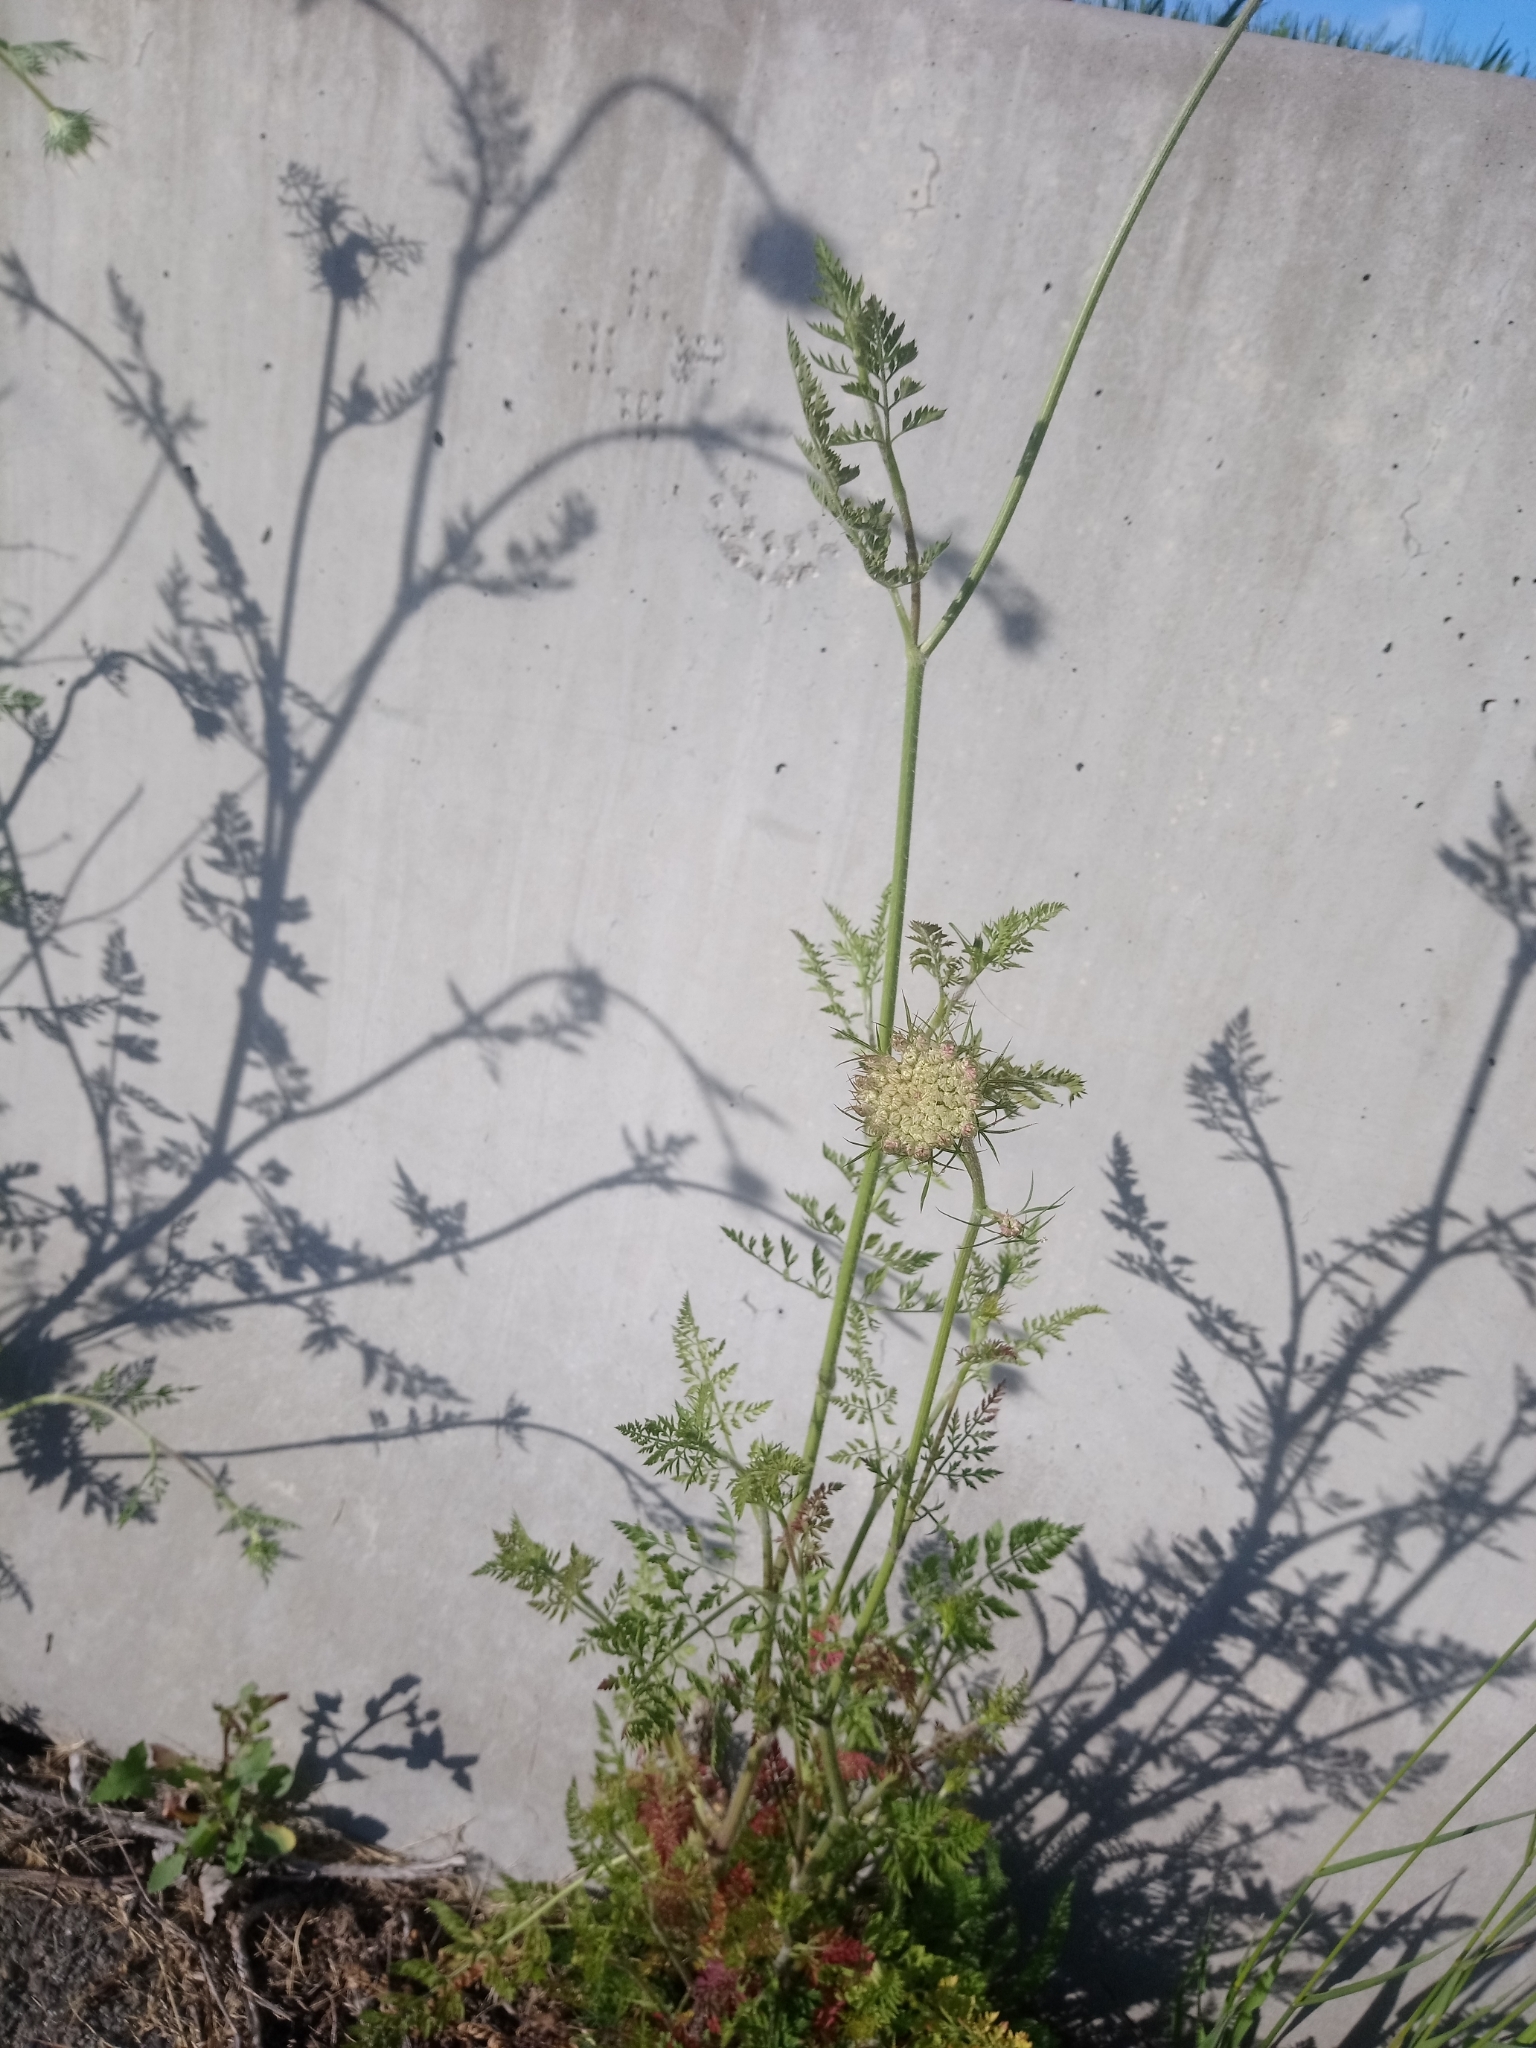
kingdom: Plantae
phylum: Tracheophyta
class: Magnoliopsida
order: Apiales
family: Apiaceae
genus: Daucus
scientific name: Daucus carota
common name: Wild carrot
